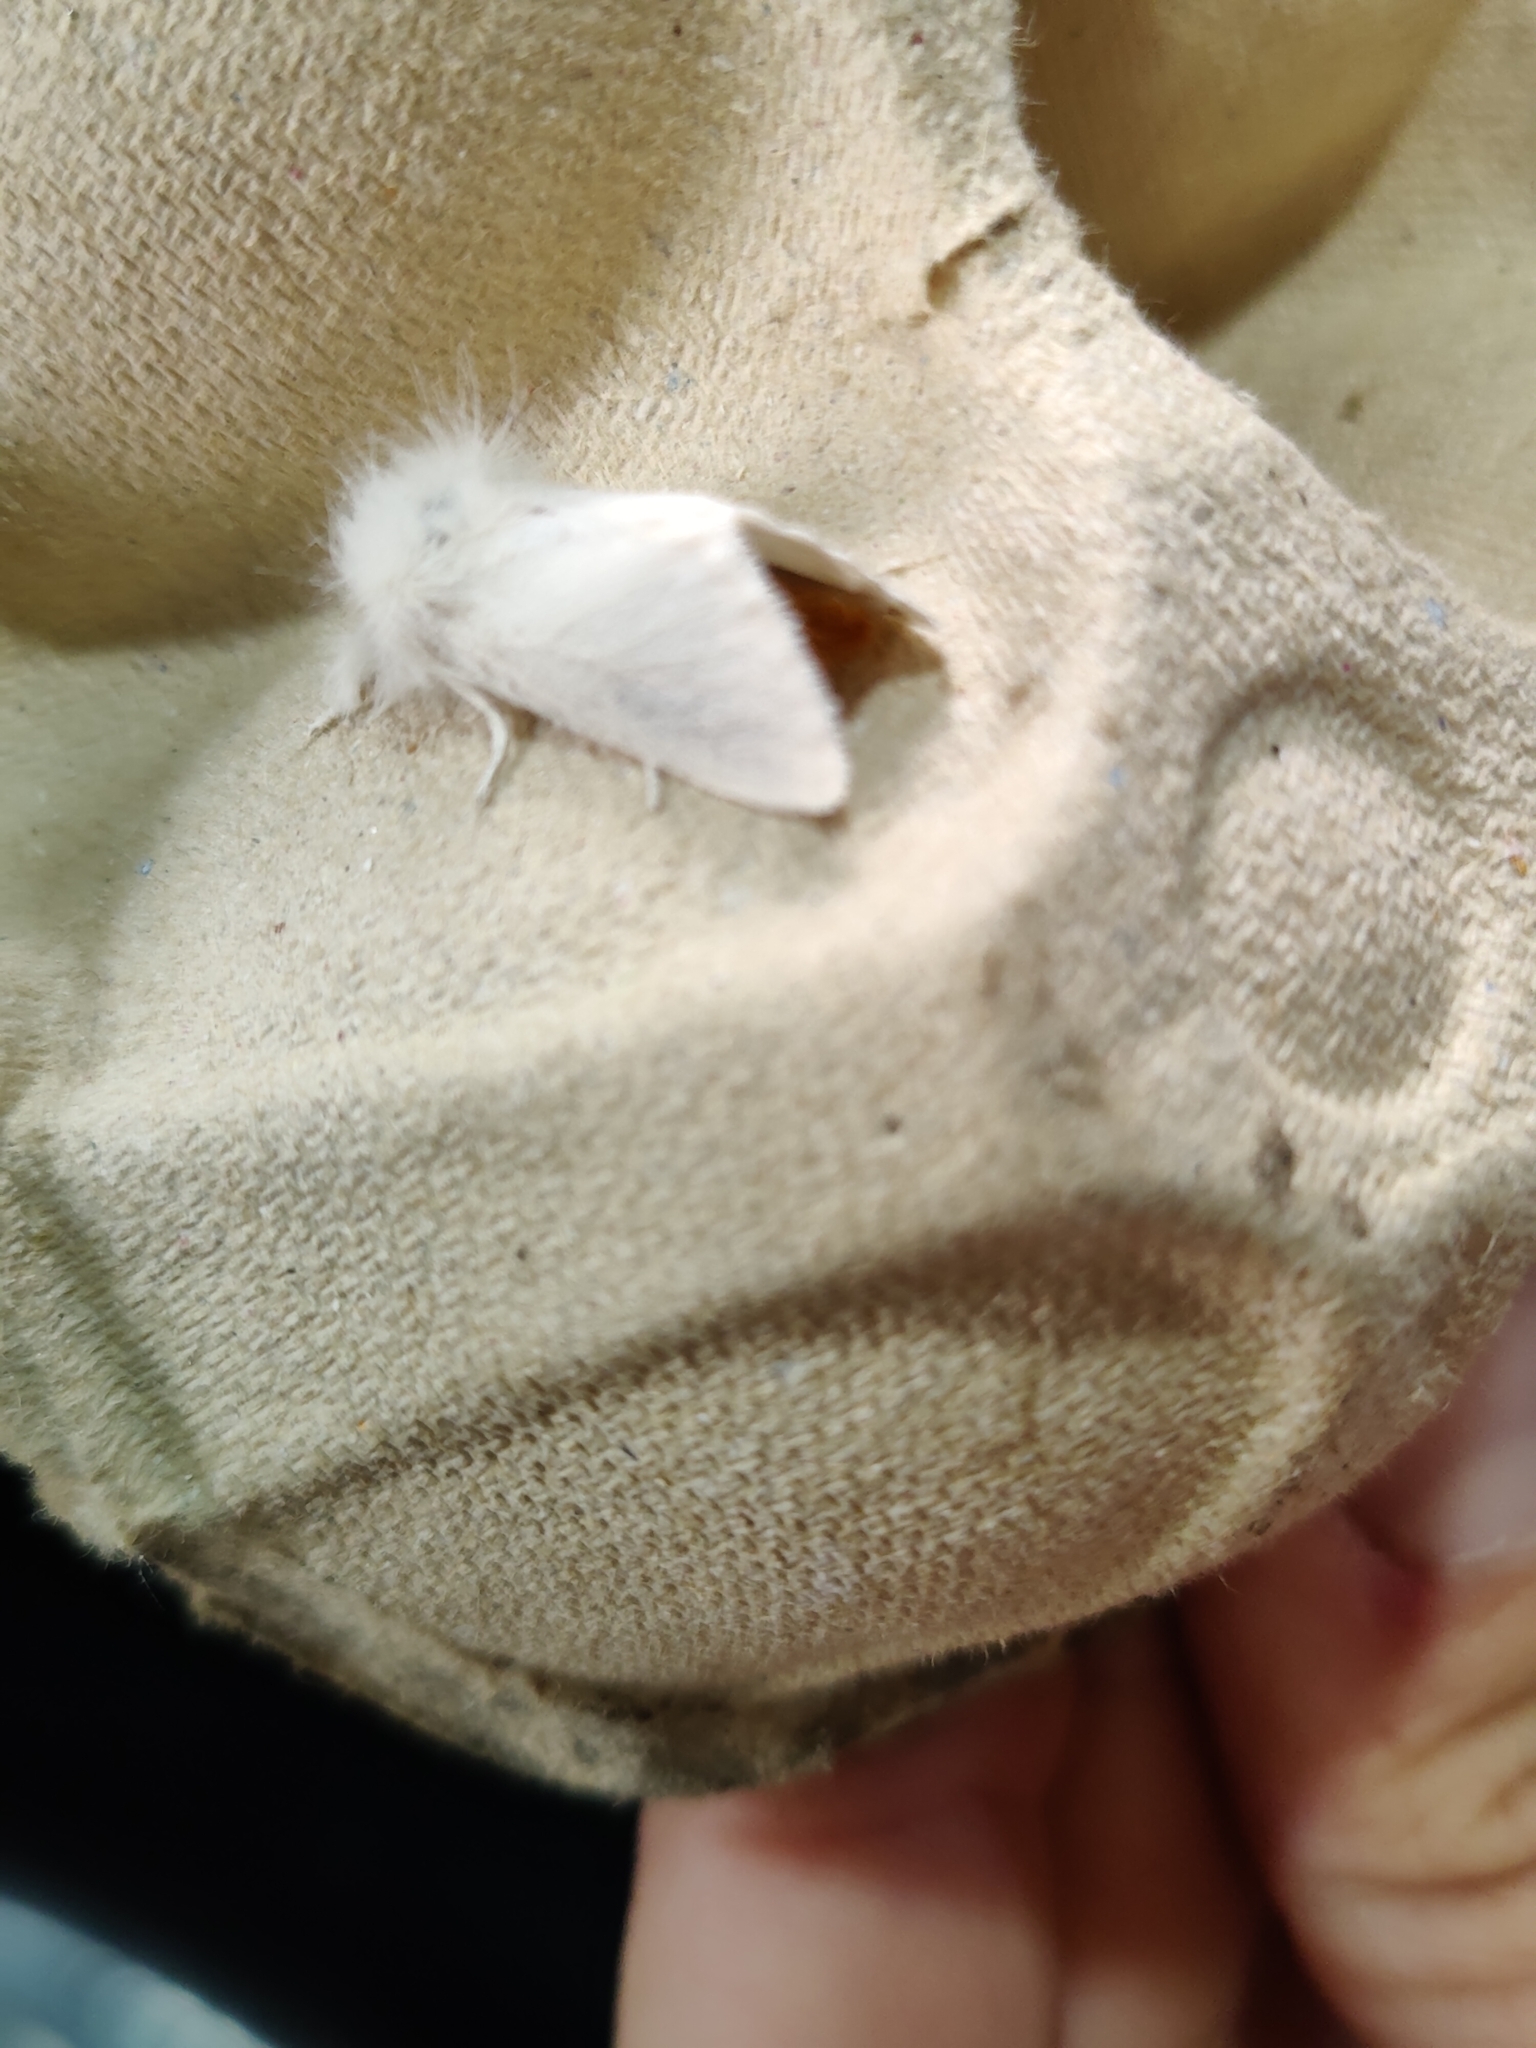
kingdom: Animalia
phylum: Arthropoda
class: Insecta
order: Lepidoptera
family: Erebidae
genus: Euproctis
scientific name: Euproctis chrysorrhoea
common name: Brown-tail
